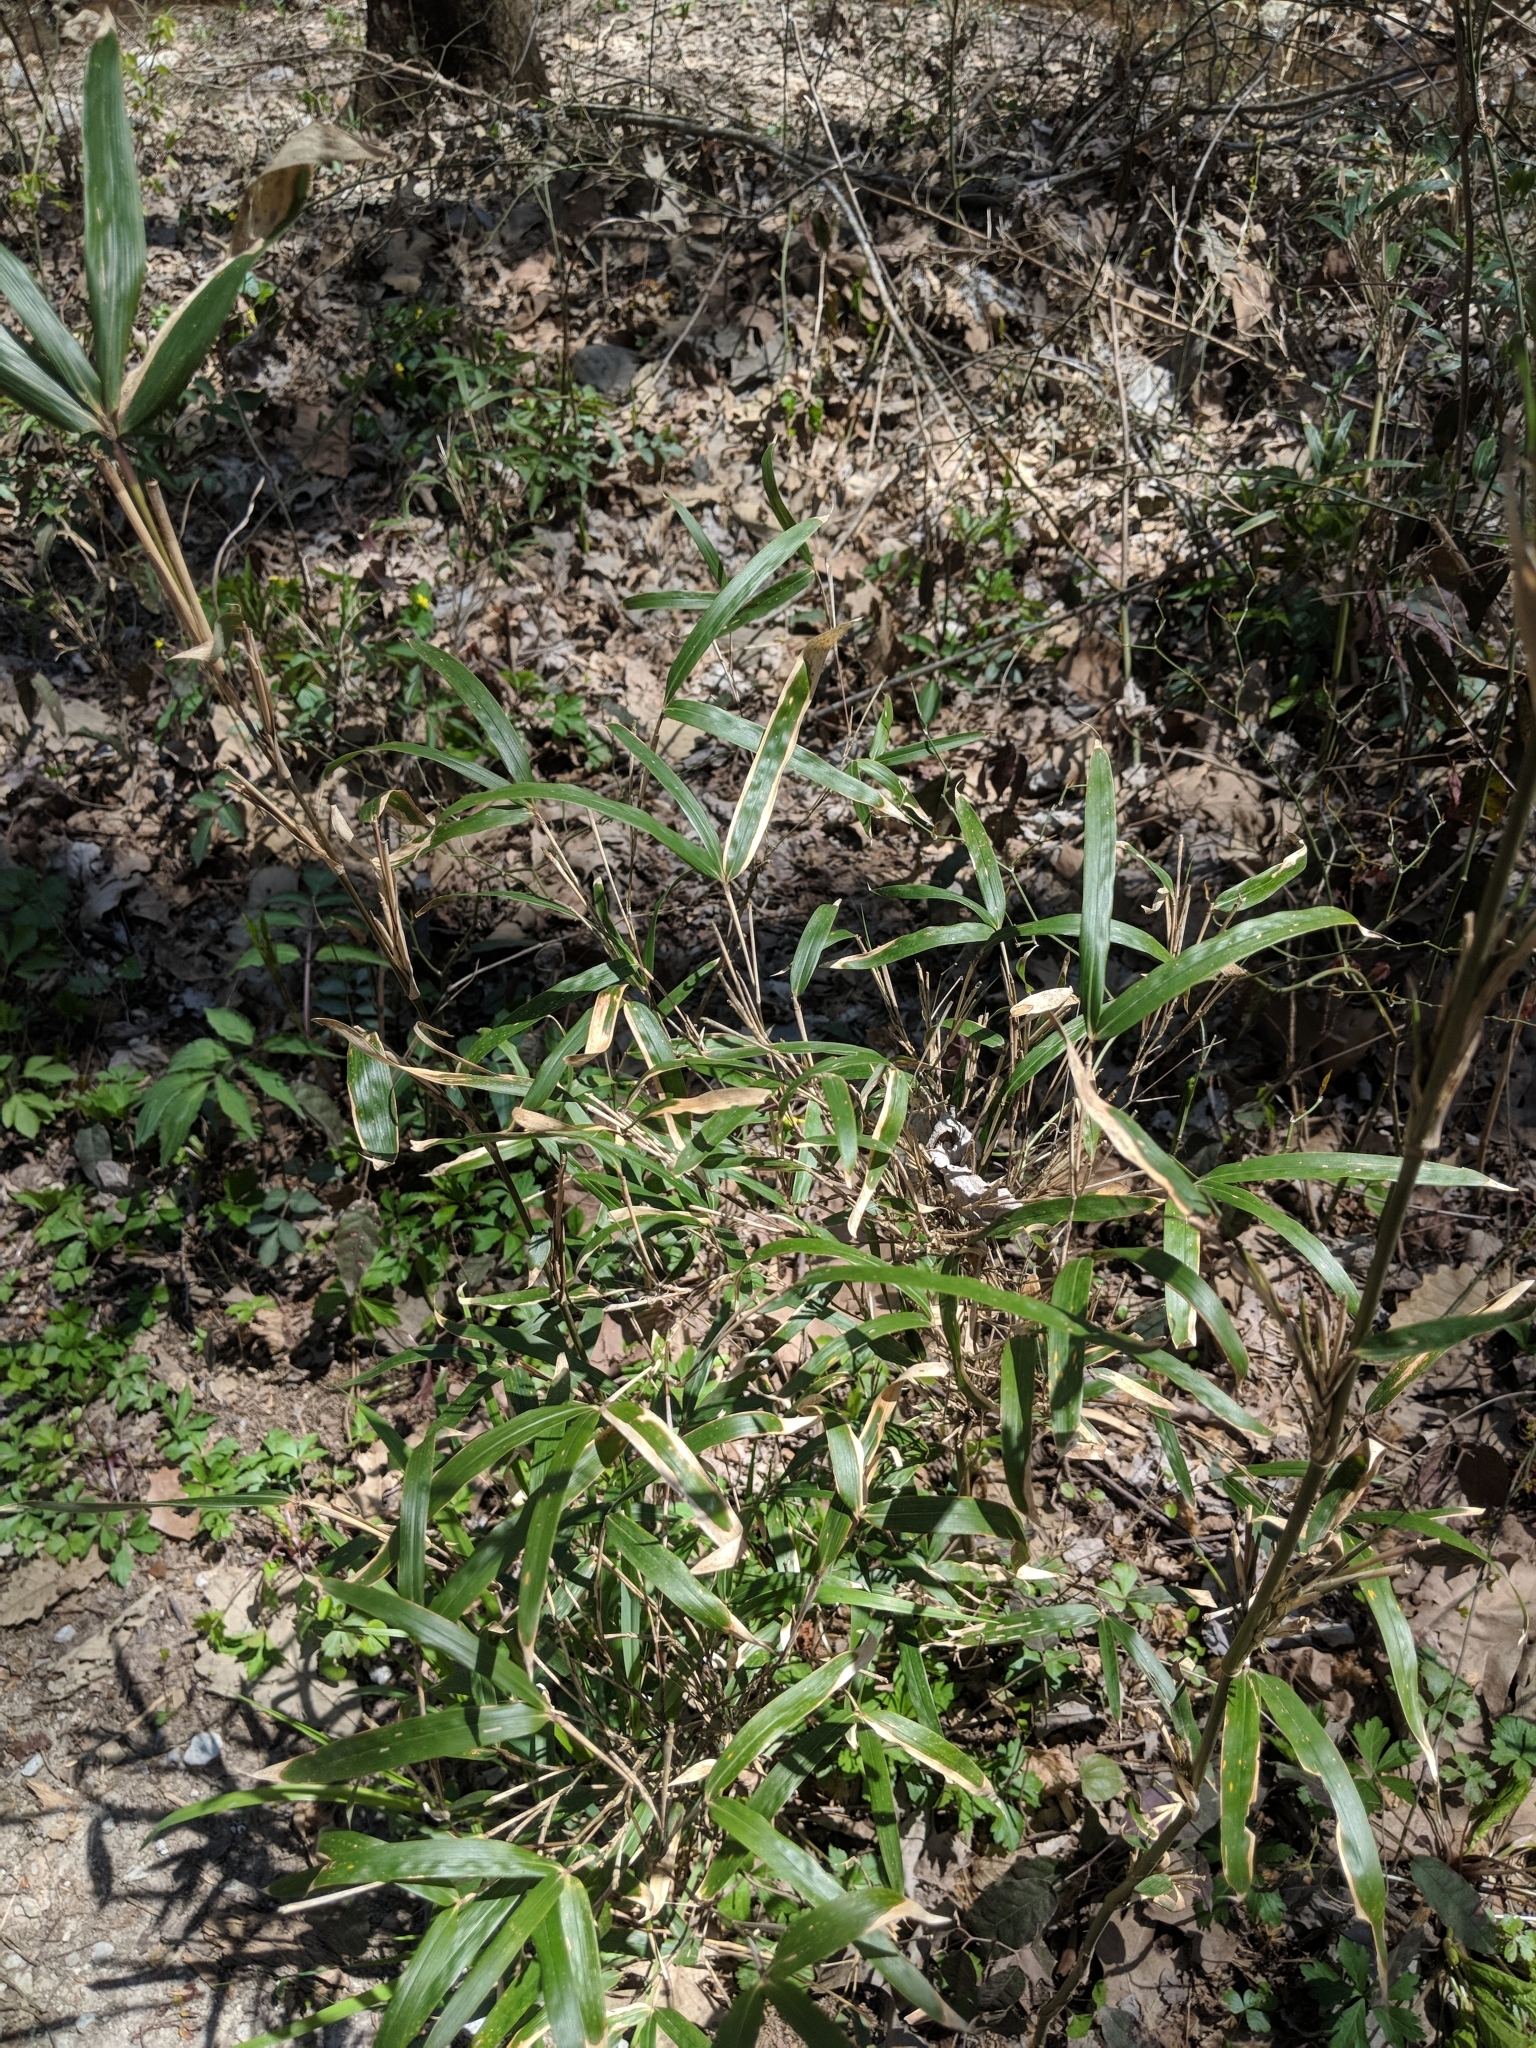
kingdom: Plantae
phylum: Tracheophyta
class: Liliopsida
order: Poales
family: Poaceae
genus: Arundinaria
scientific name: Arundinaria gigantea
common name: Giant cane
